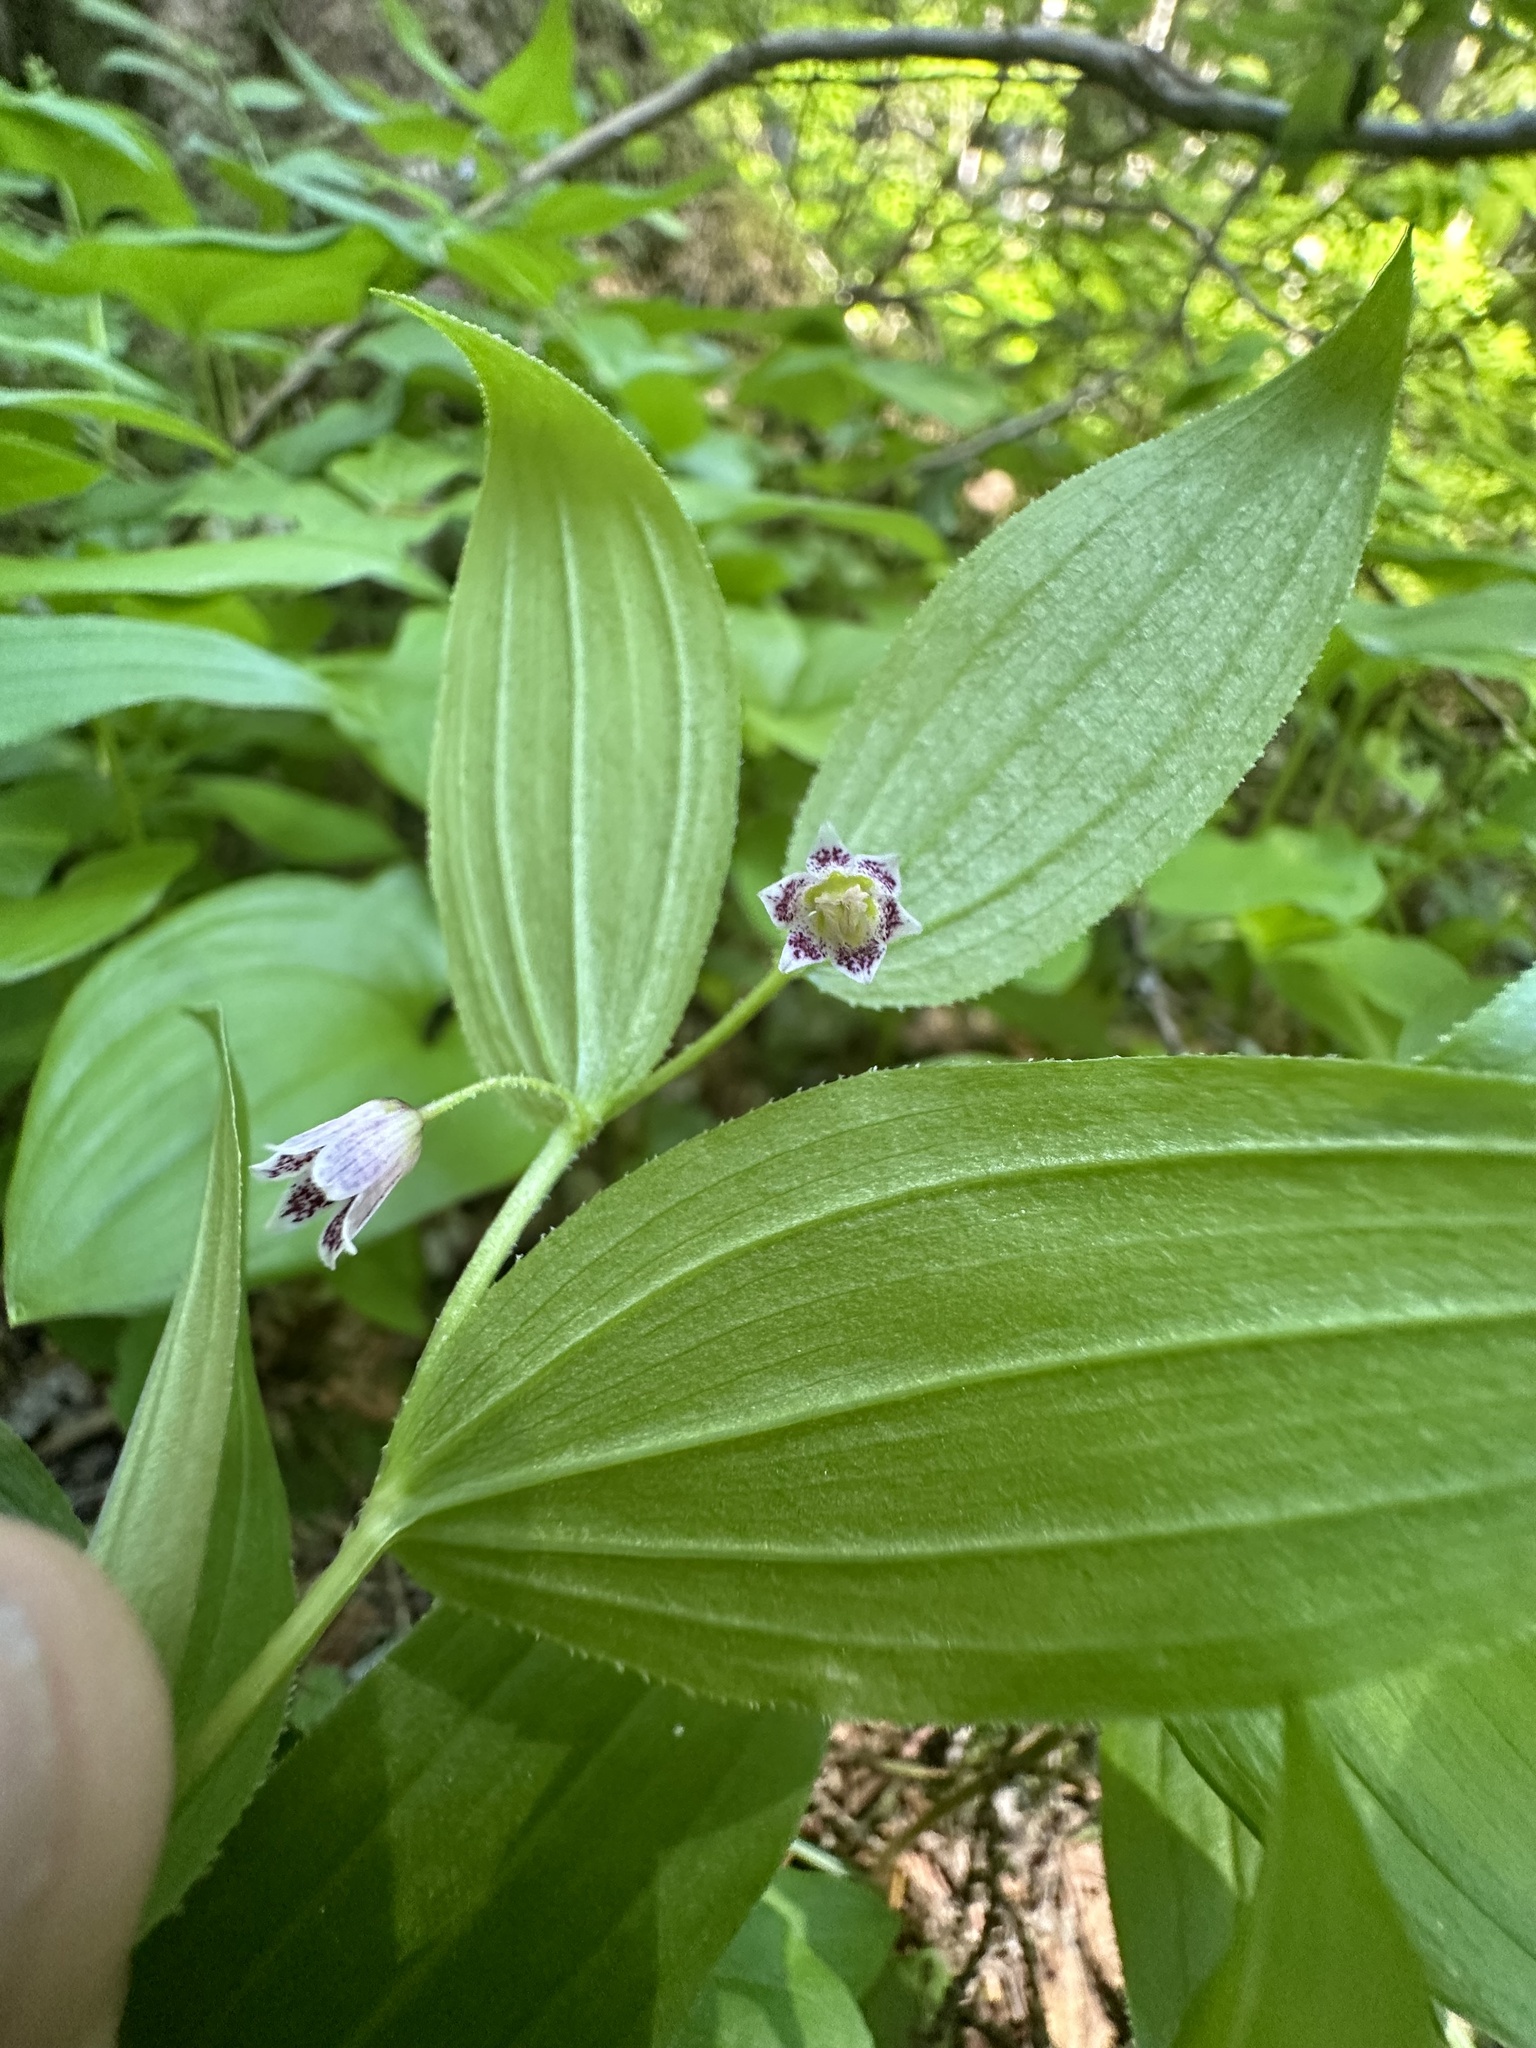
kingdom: Plantae
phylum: Tracheophyta
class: Liliopsida
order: Liliales
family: Liliaceae
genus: Streptopus
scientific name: Streptopus lanceolatus
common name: Rose mandarin
